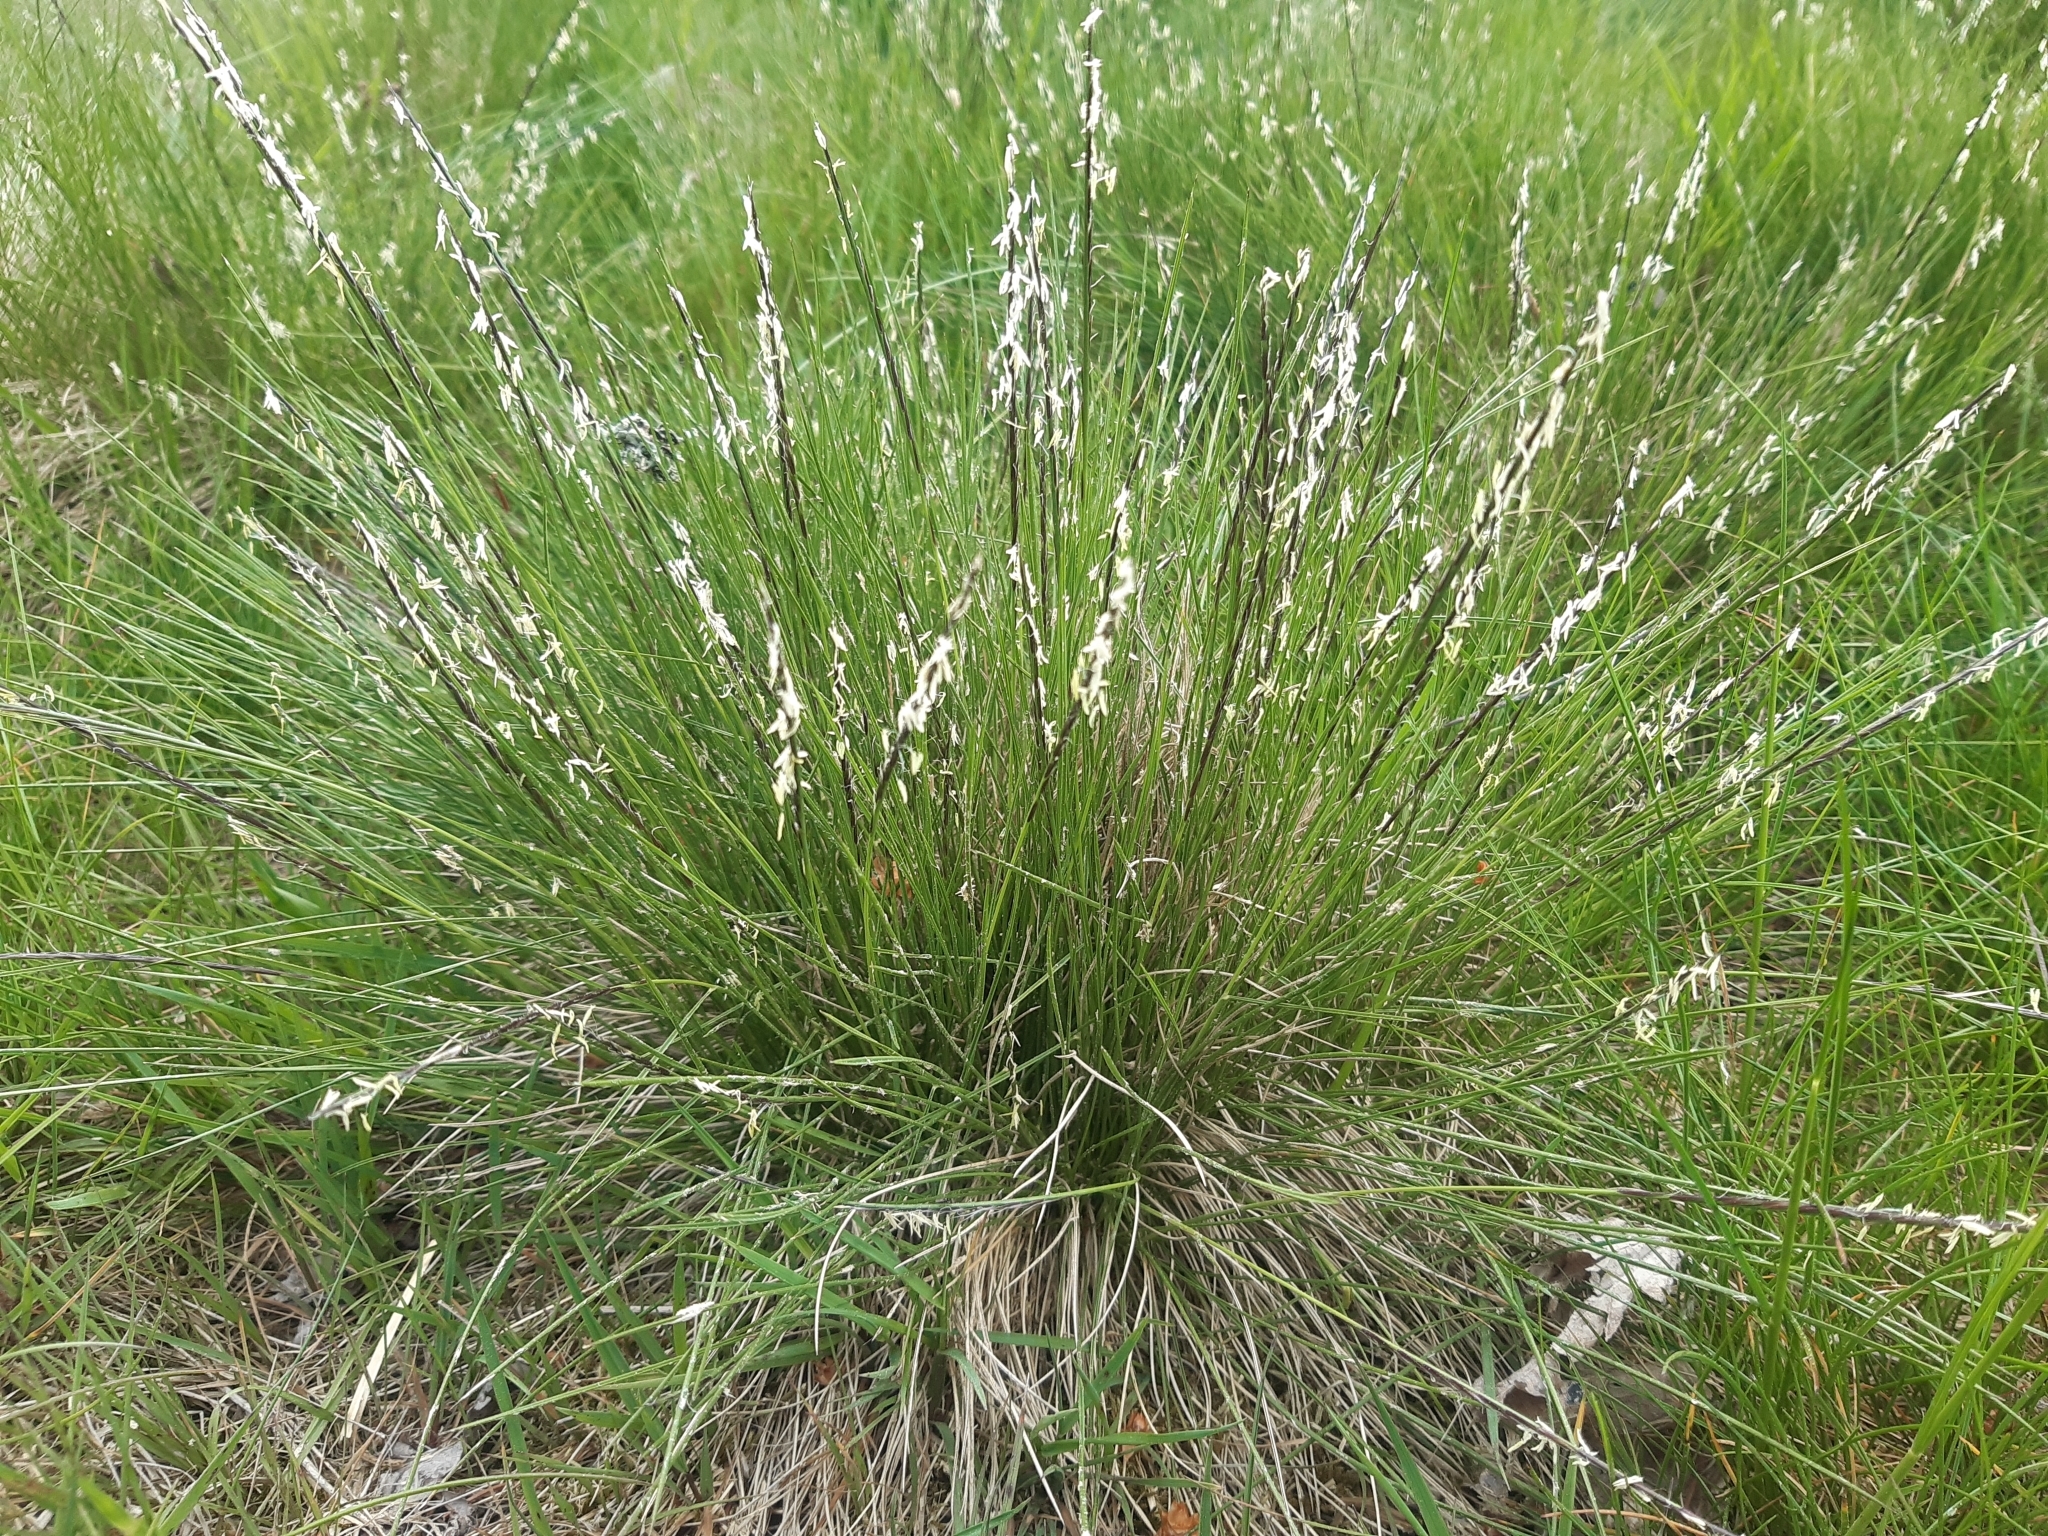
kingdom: Plantae
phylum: Tracheophyta
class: Liliopsida
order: Poales
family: Poaceae
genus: Nardus
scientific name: Nardus stricta
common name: Mat-grass
